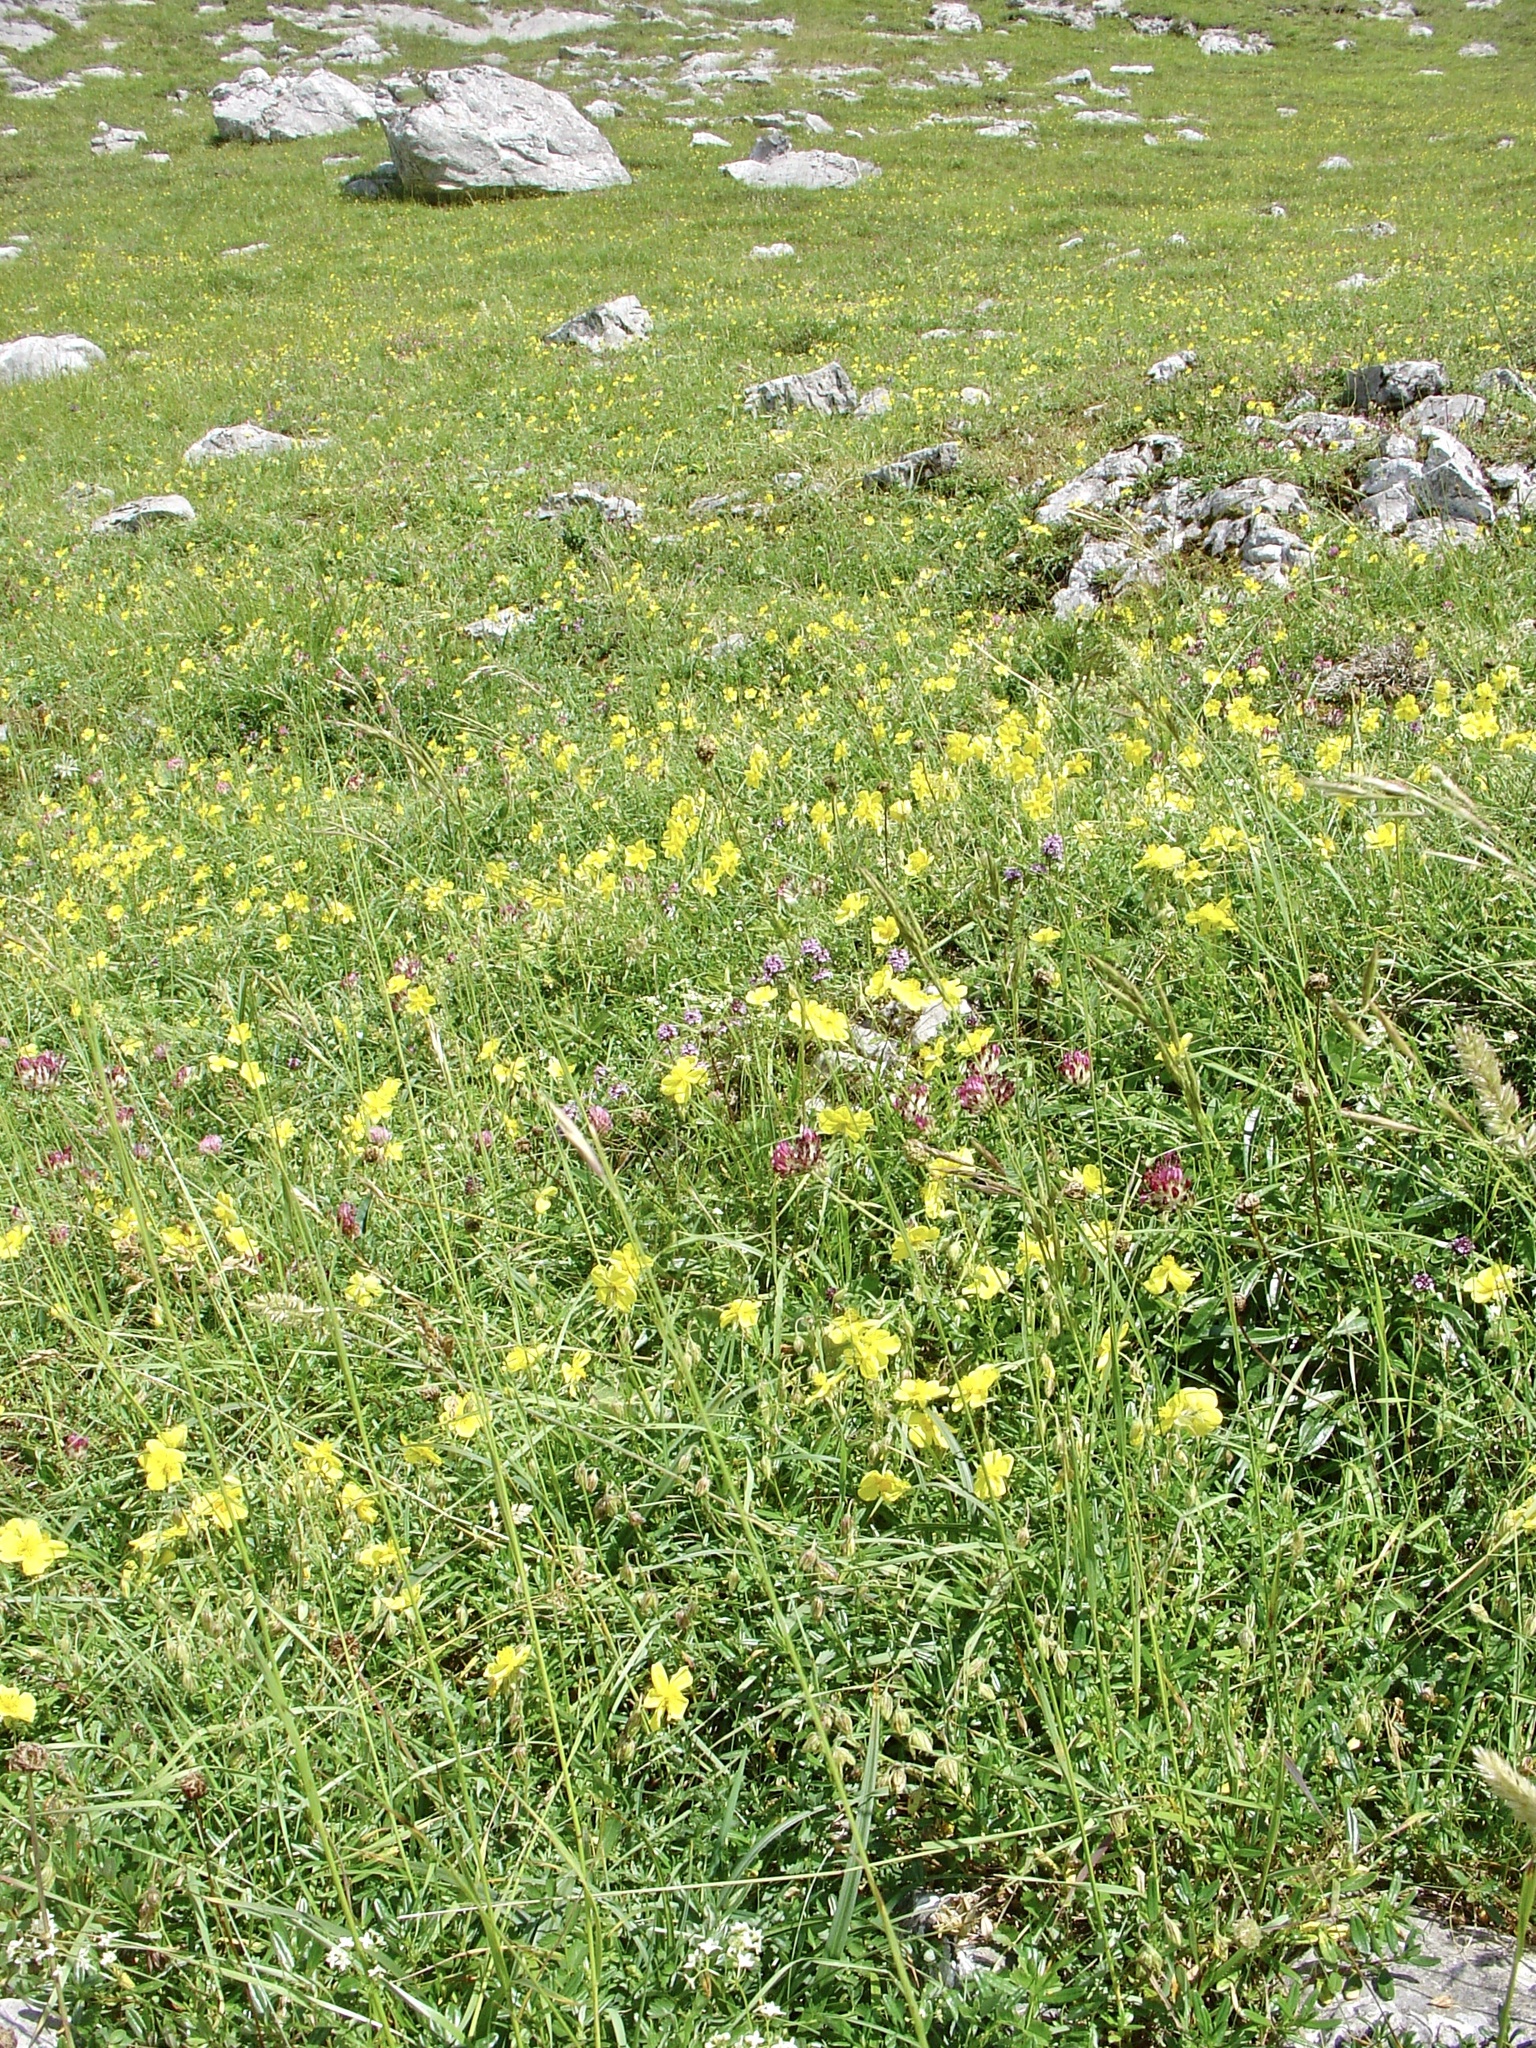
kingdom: Plantae
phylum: Tracheophyta
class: Magnoliopsida
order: Malvales
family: Cistaceae
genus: Helianthemum
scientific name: Helianthemum nummularium
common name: Common rock-rose
